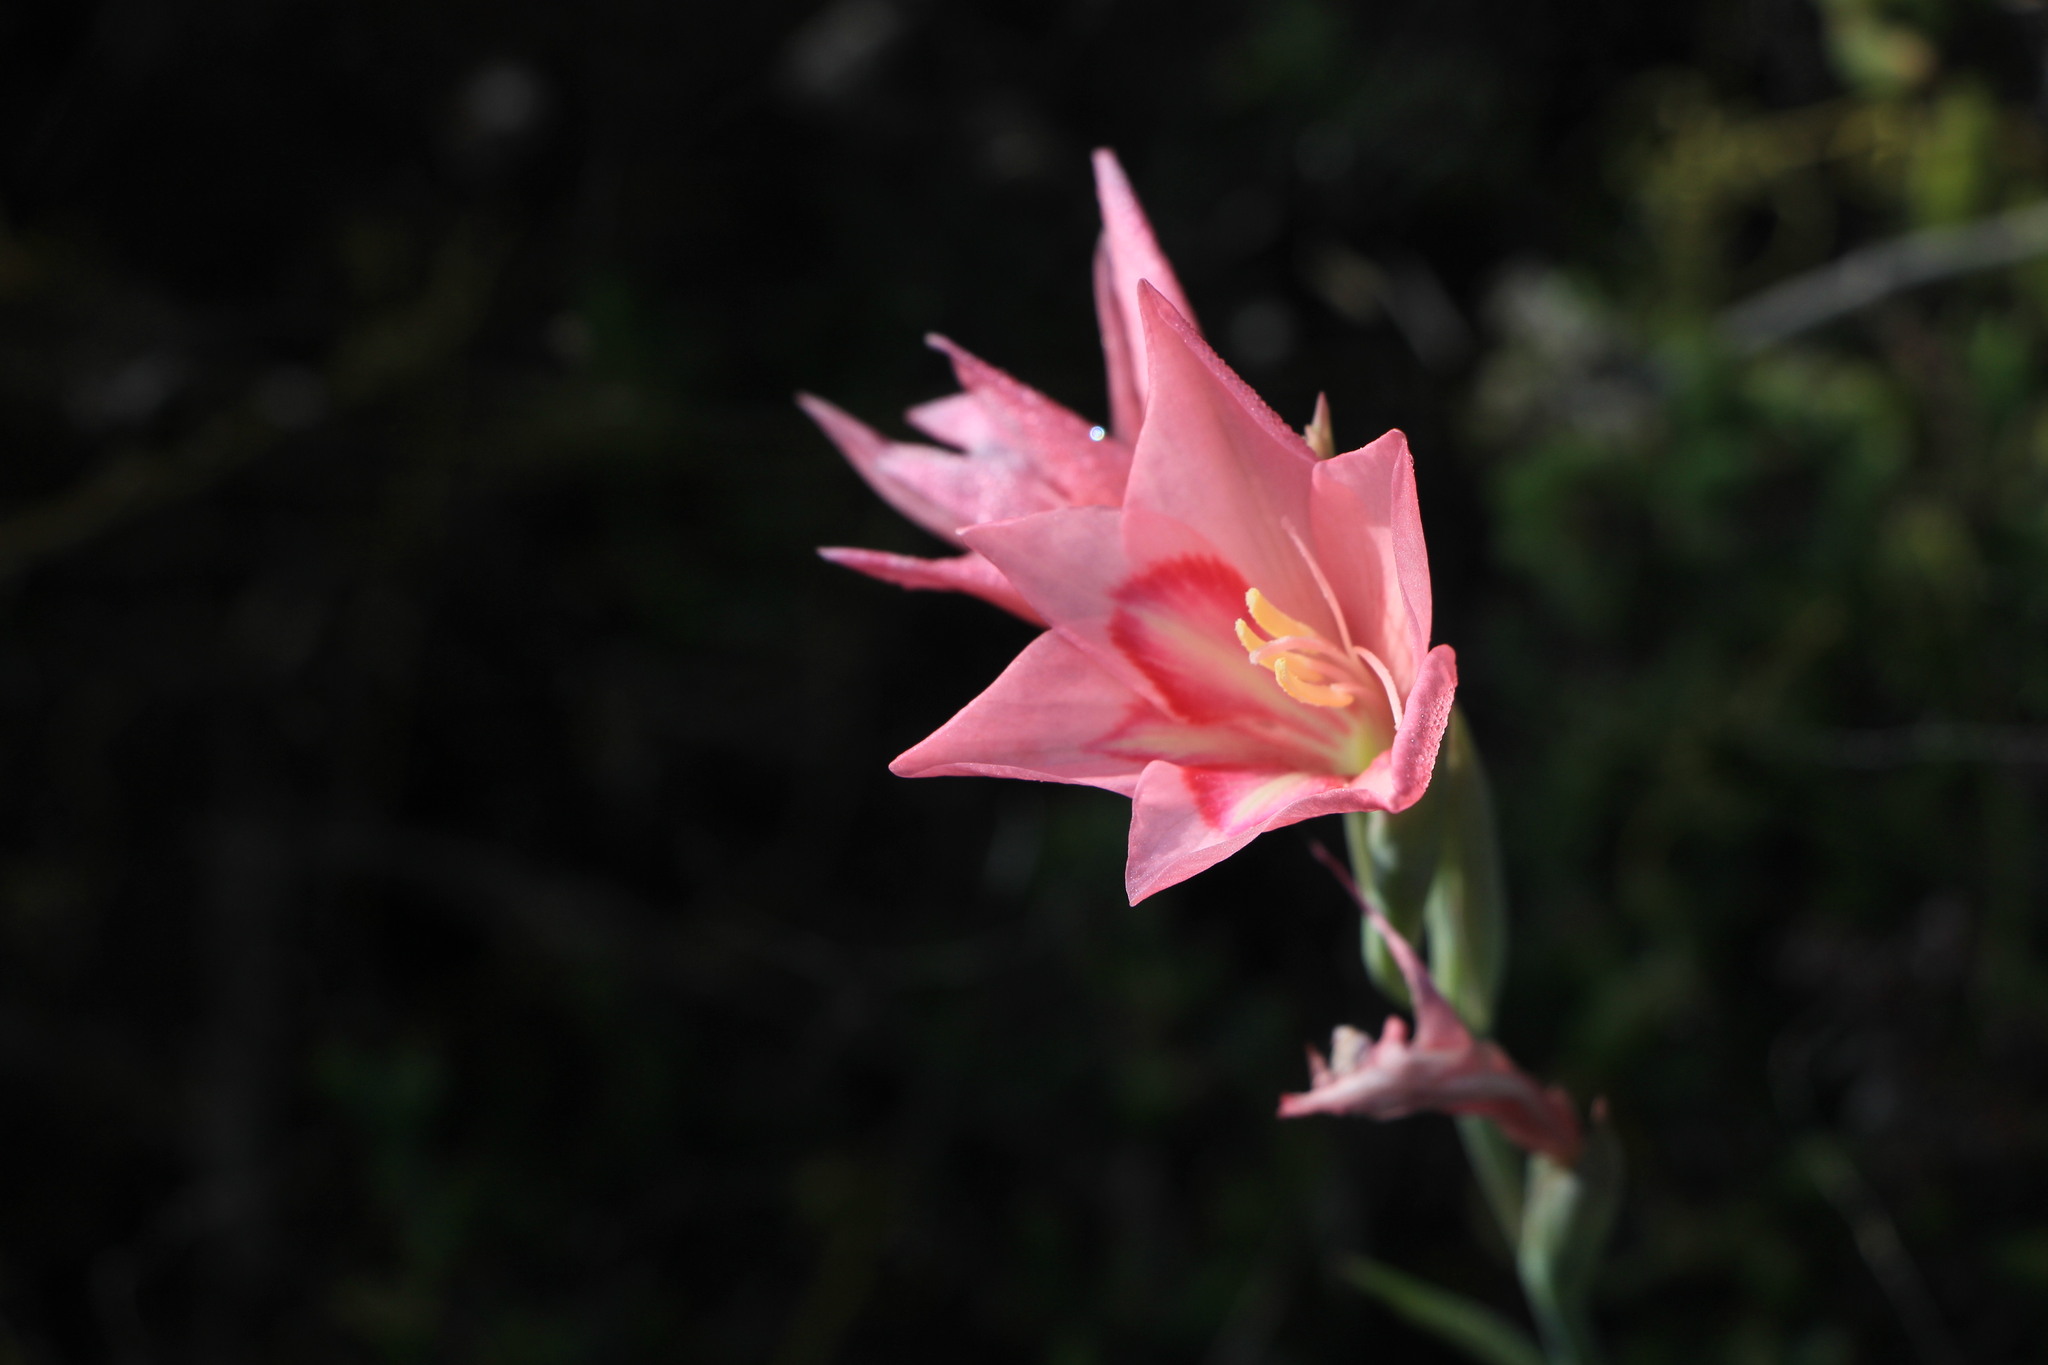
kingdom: Plantae
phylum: Tracheophyta
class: Liliopsida
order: Asparagales
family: Iridaceae
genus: Gladiolus
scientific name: Gladiolus carmineus
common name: Hermanus gladiolus
